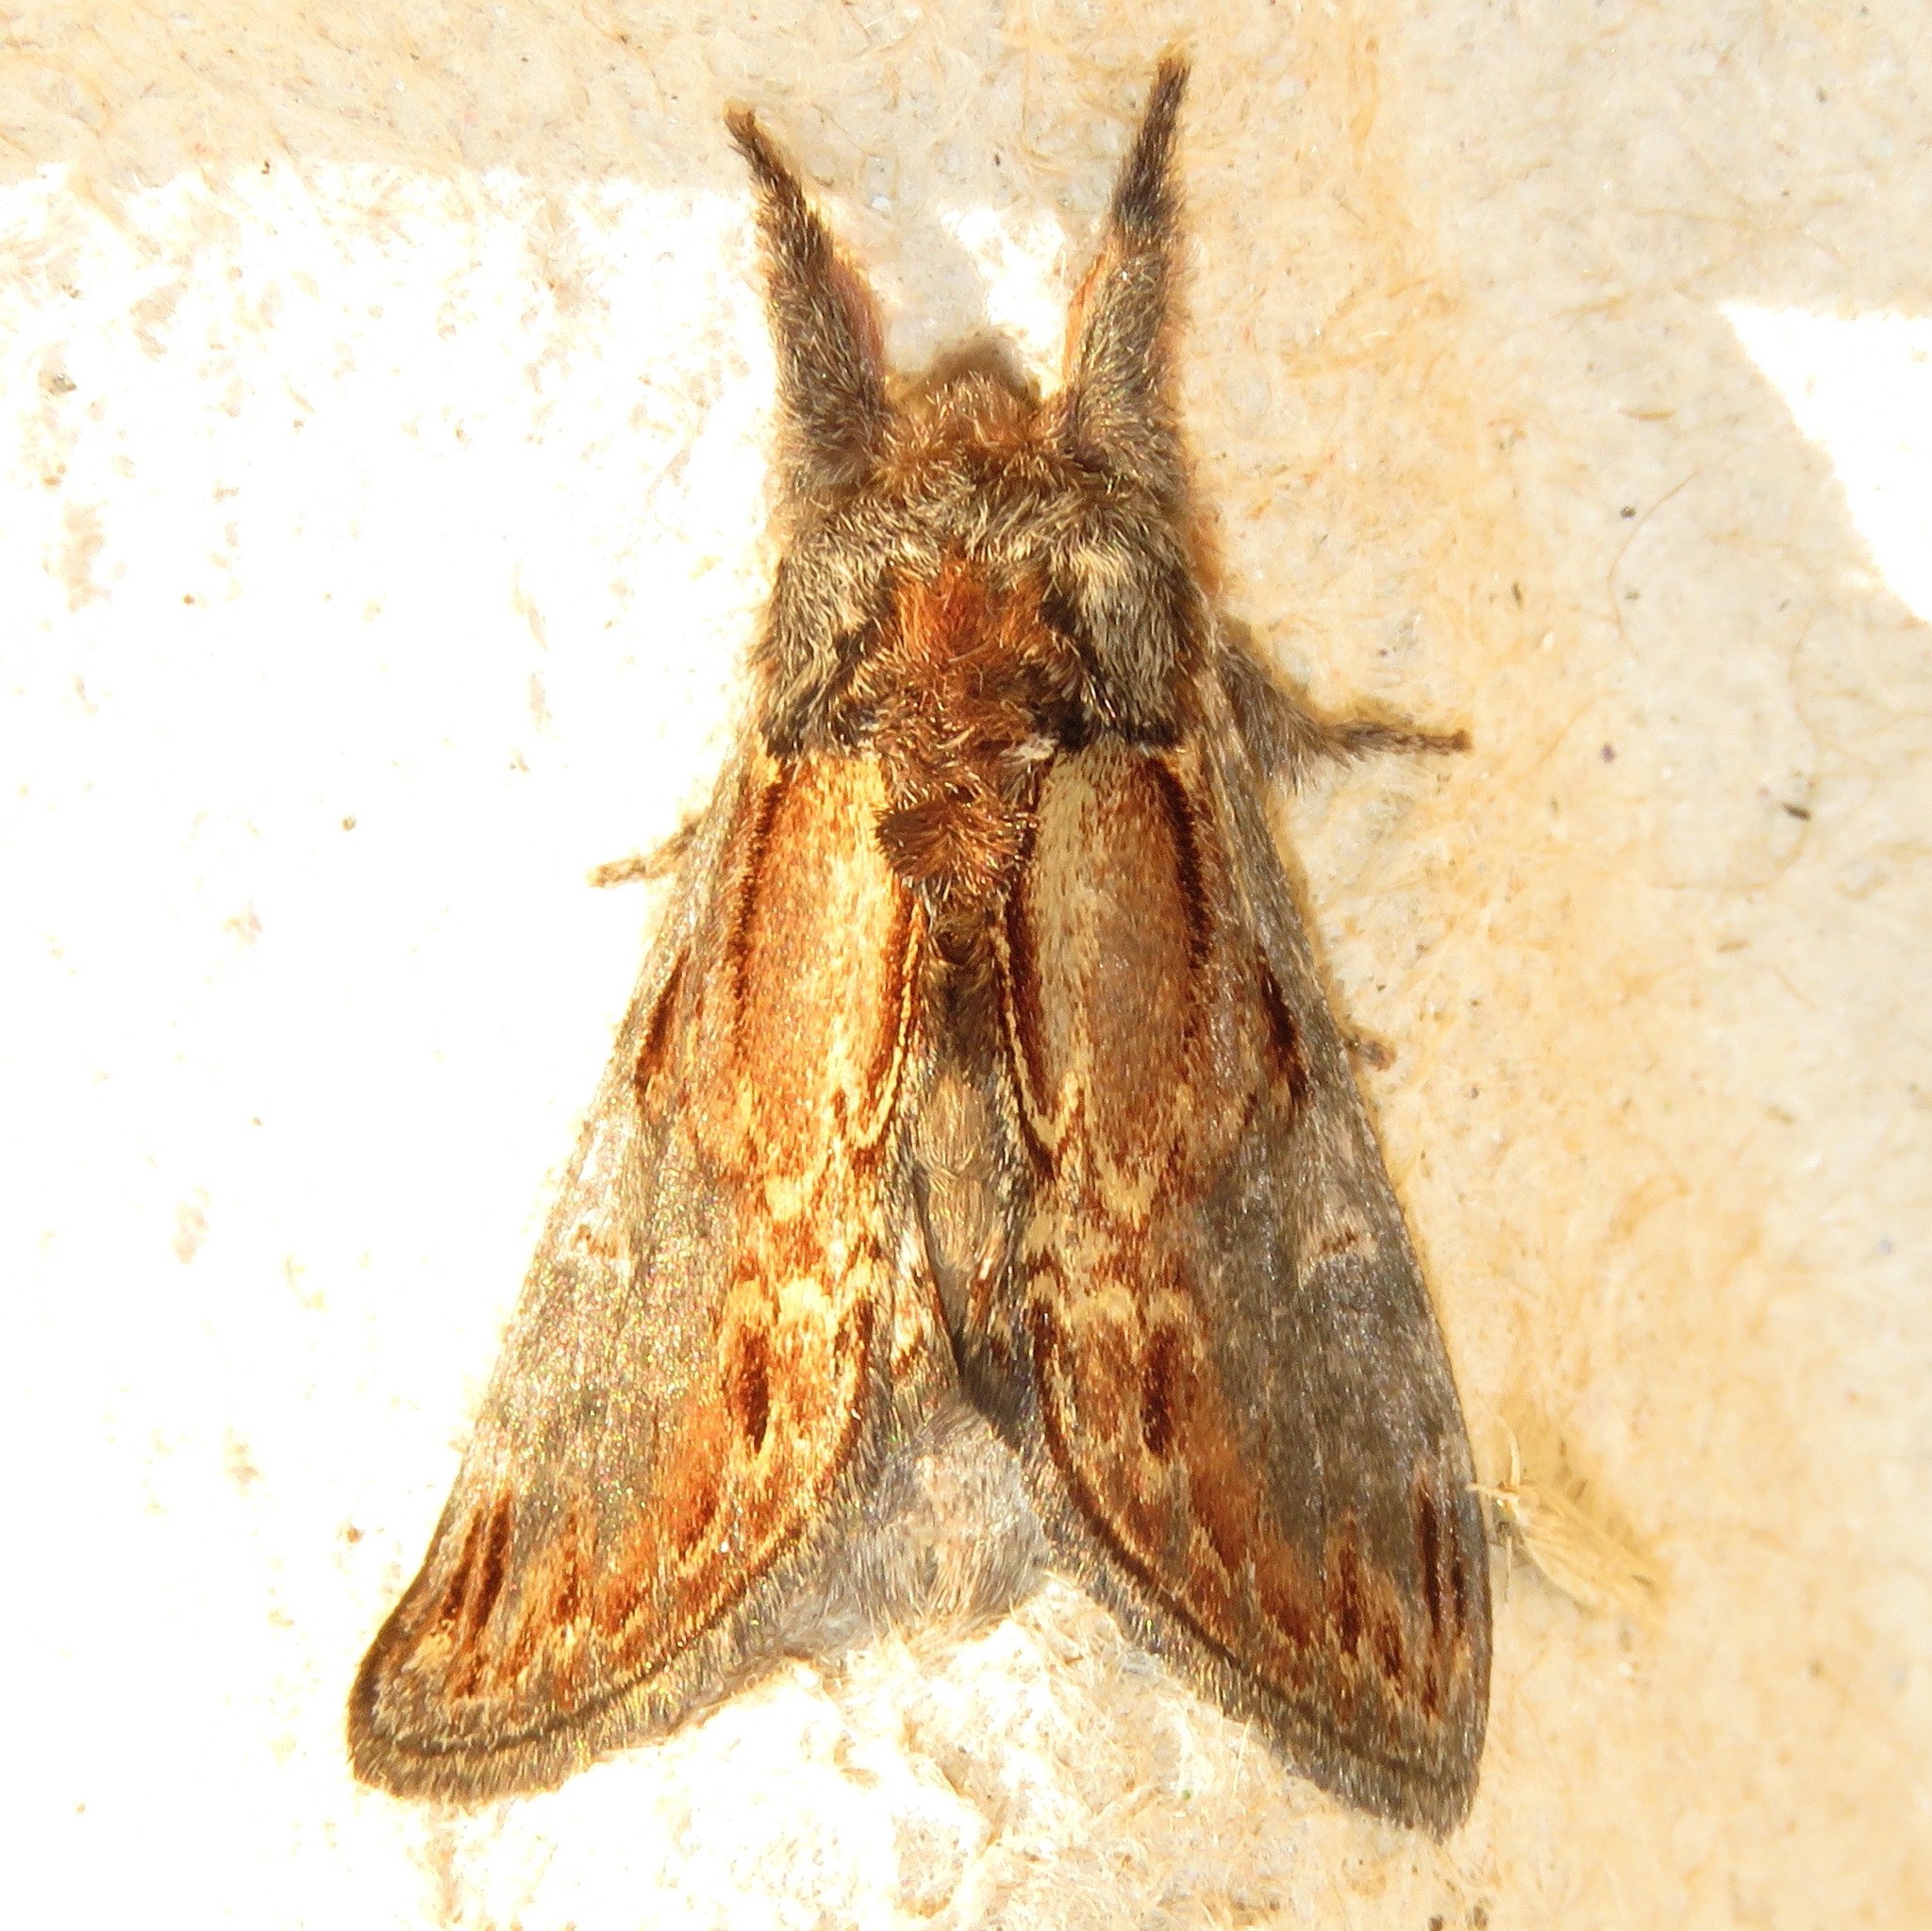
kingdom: Animalia
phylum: Arthropoda
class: Insecta
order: Lepidoptera
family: Notodontidae
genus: Notodonta
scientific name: Notodonta scitipennis
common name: Finned-willow prominent moth
